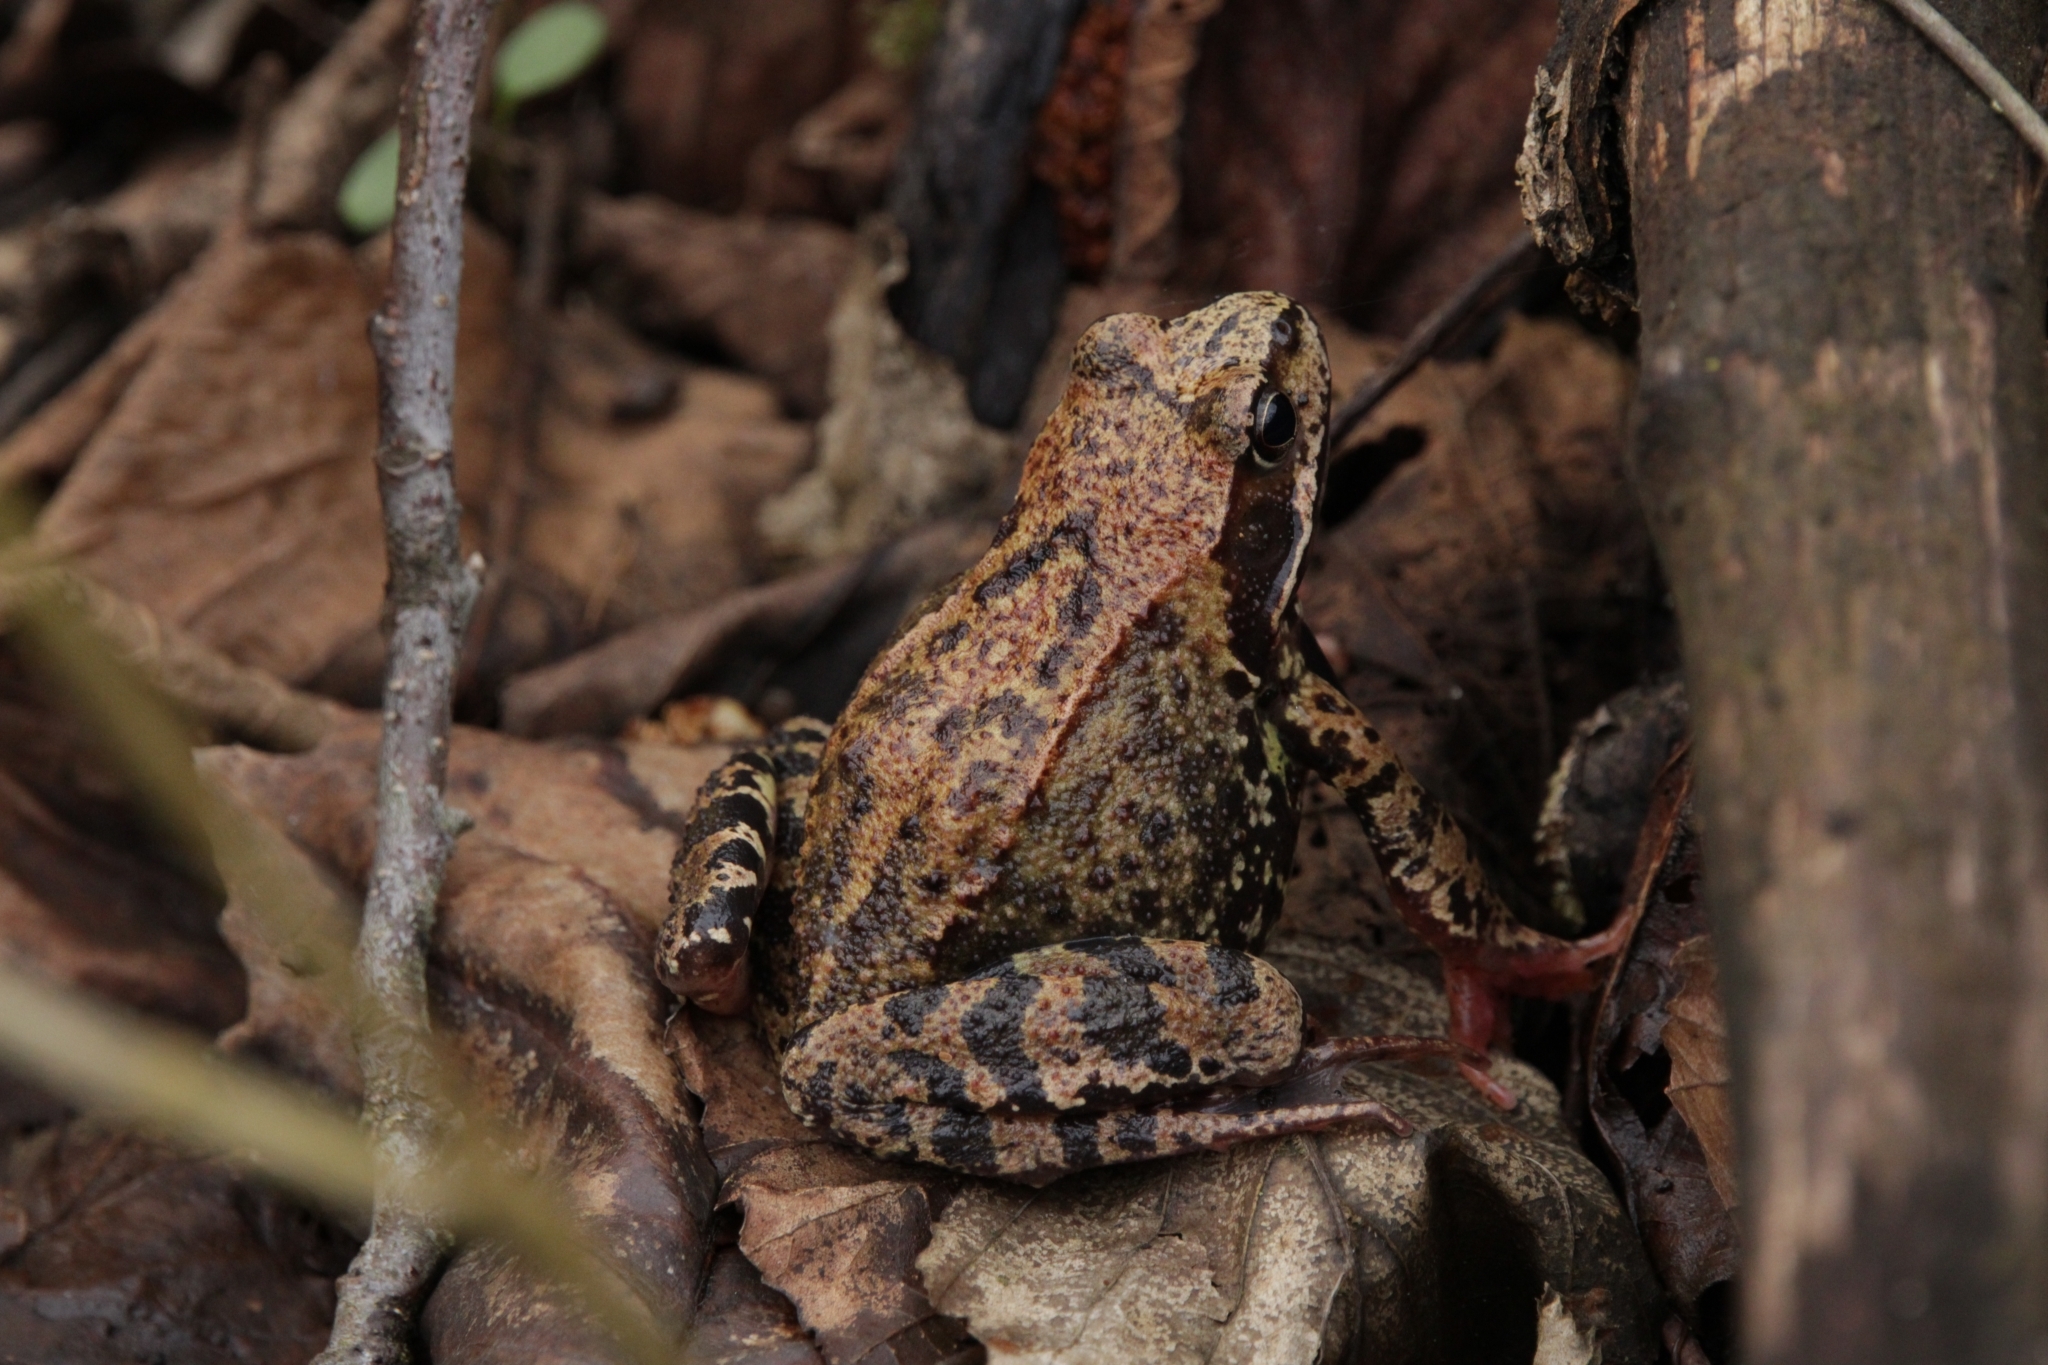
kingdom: Animalia
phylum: Chordata
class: Amphibia
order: Anura
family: Ranidae
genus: Rana
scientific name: Rana temporaria
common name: Common frog
